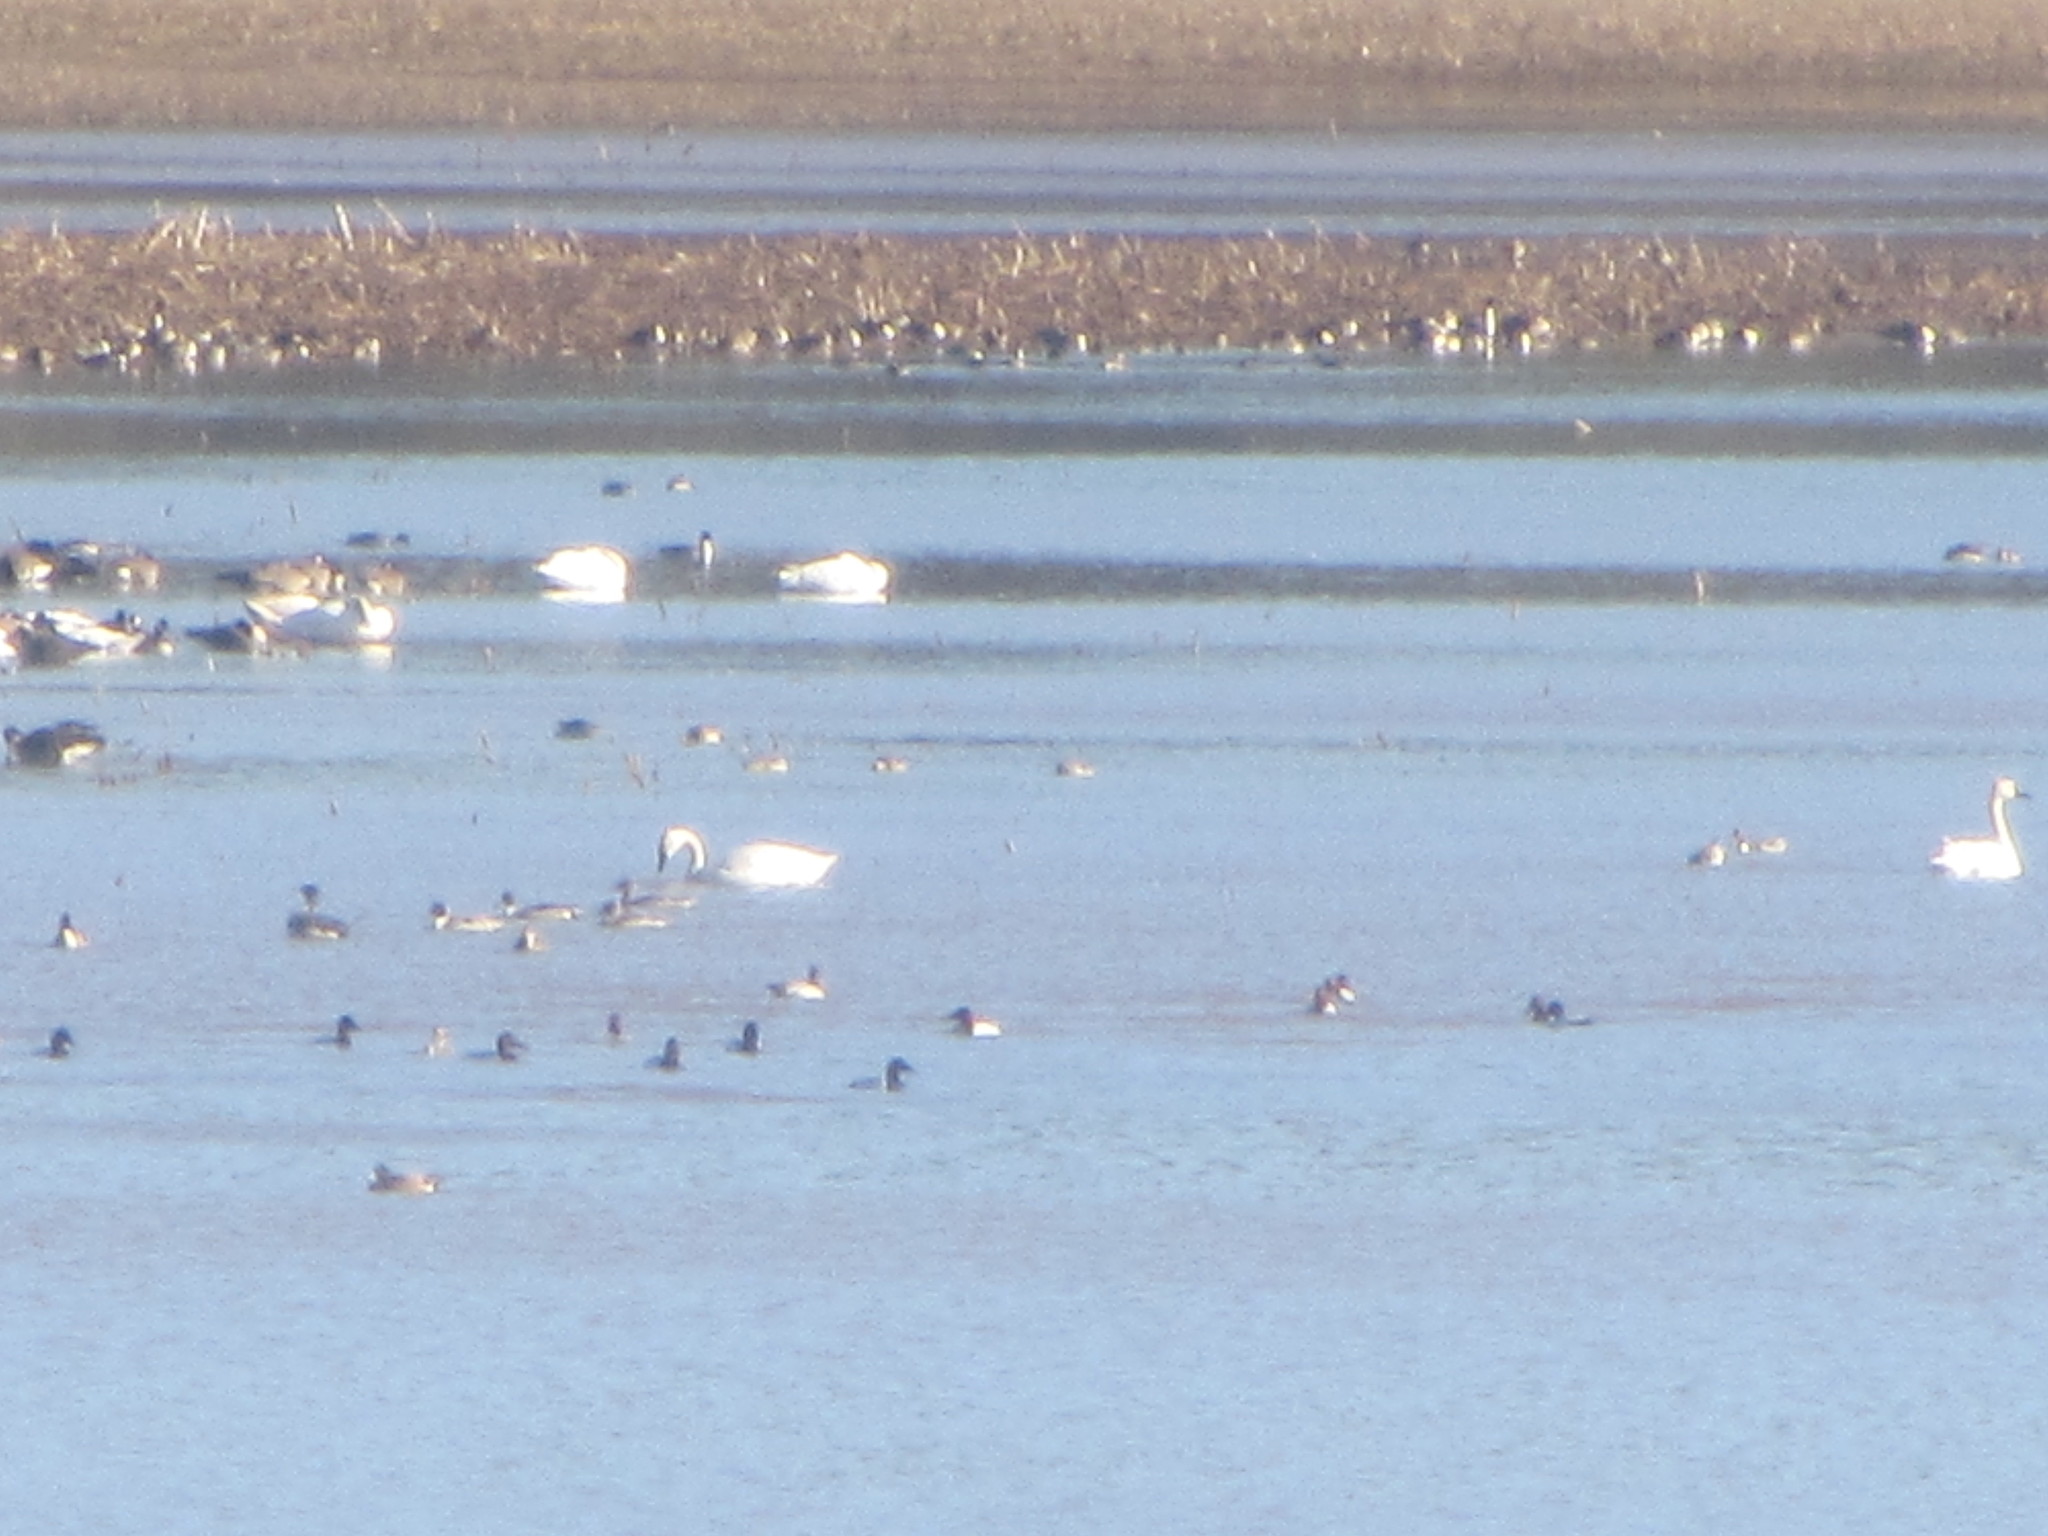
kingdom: Animalia
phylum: Chordata
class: Aves
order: Anseriformes
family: Anatidae
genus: Cygnus
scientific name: Cygnus columbianus
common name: Tundra swan
